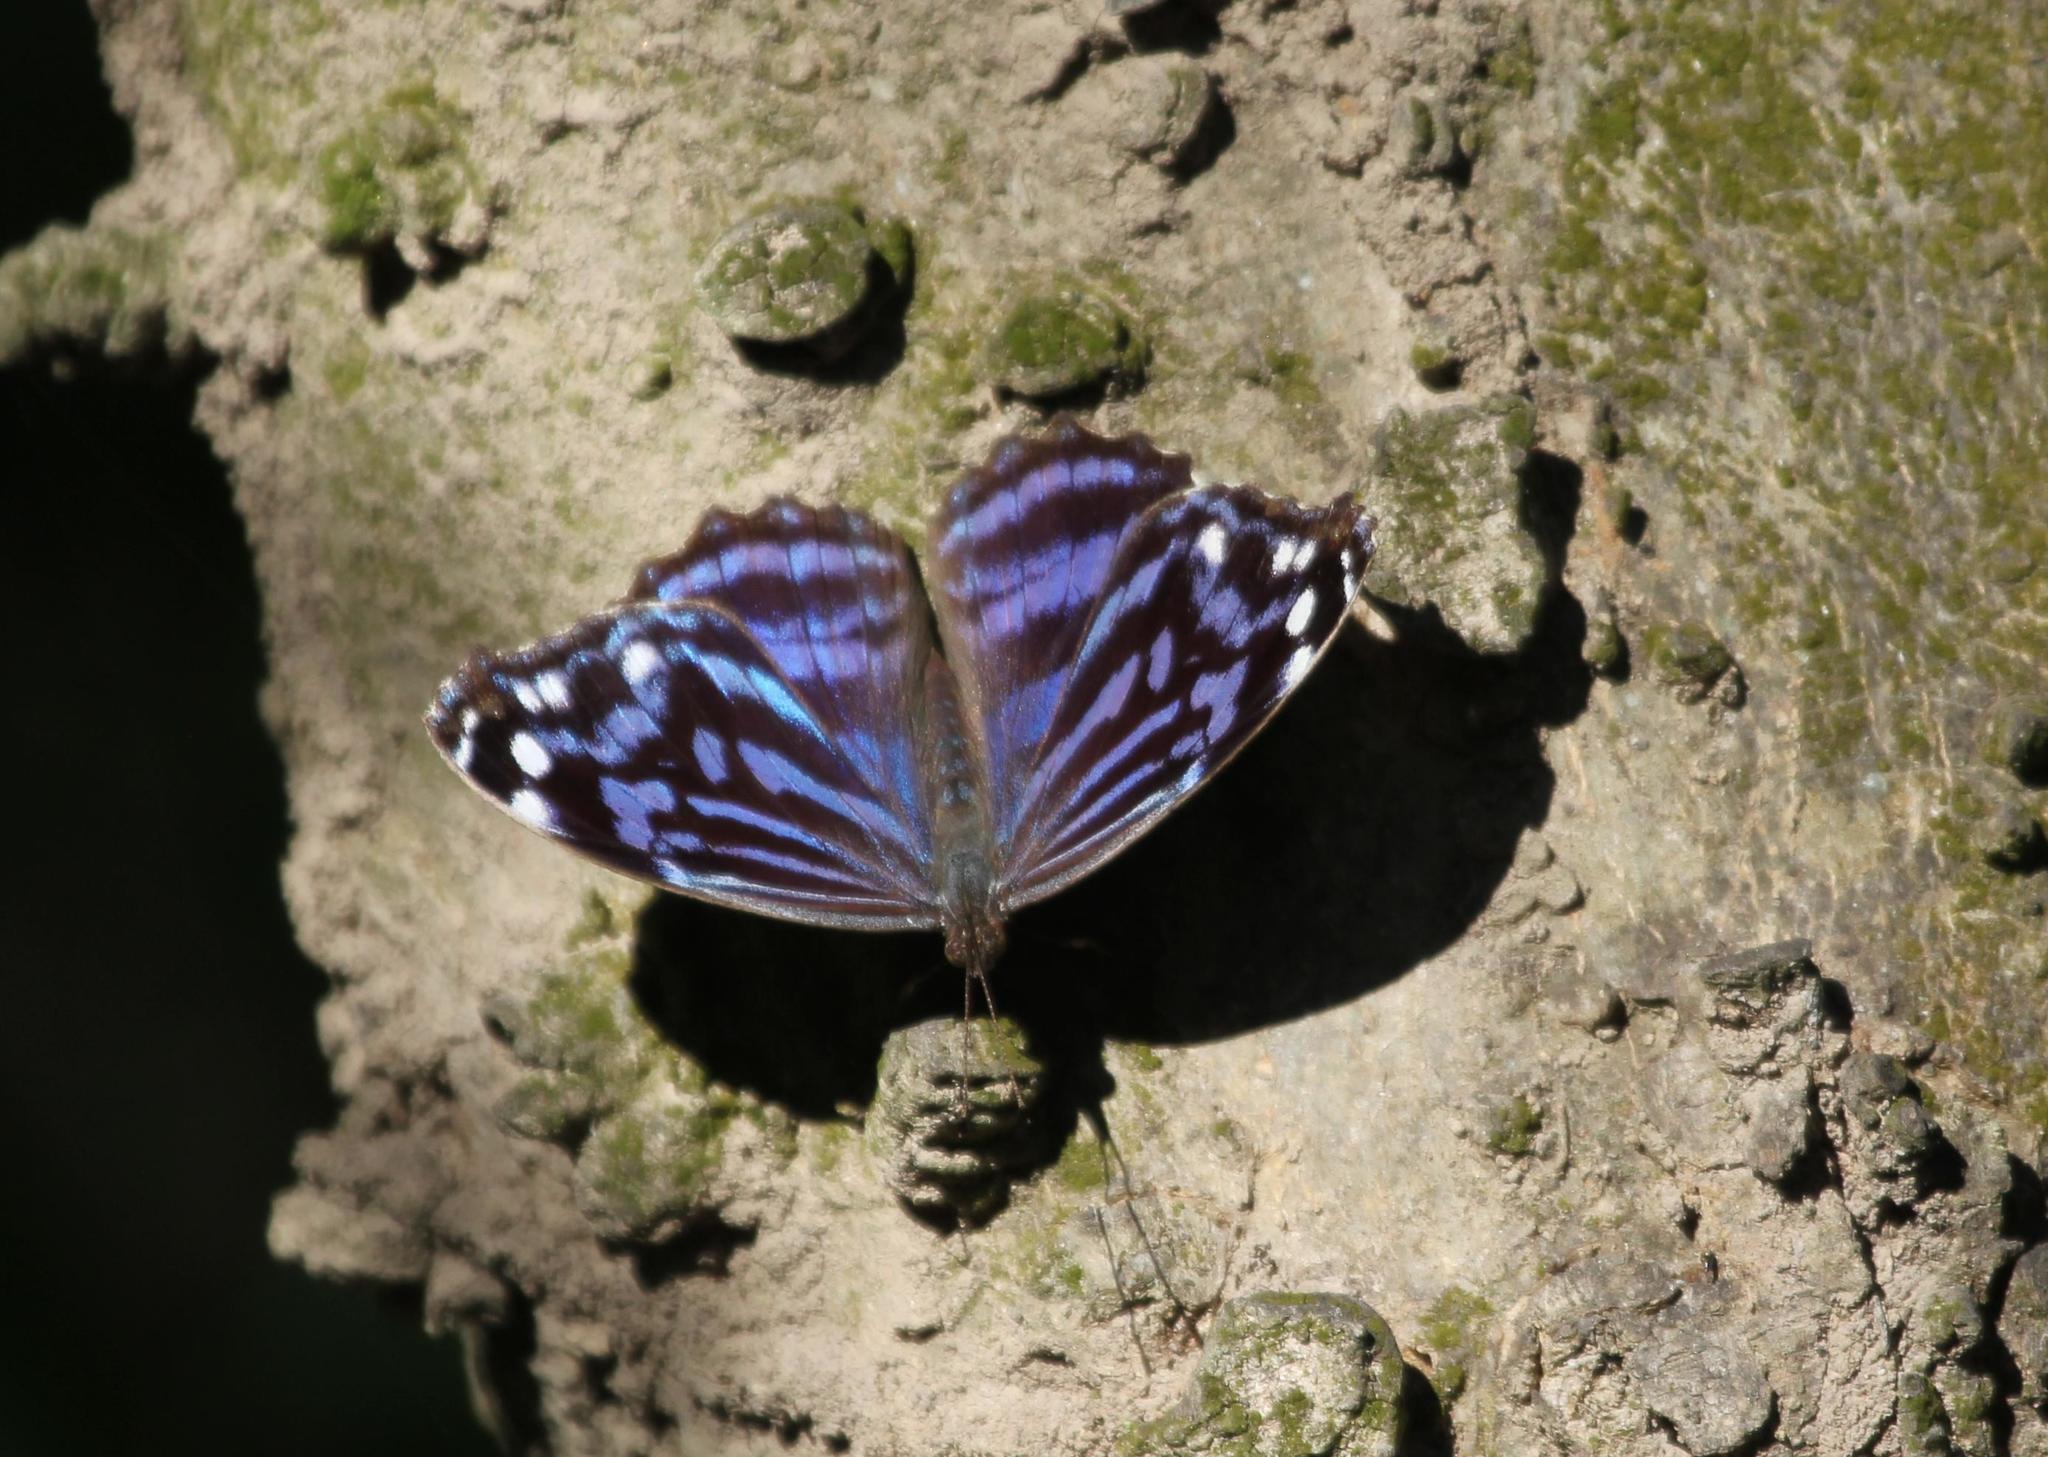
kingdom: Animalia
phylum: Arthropoda
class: Insecta
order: Lepidoptera
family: Nymphalidae
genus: Myscelia
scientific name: Myscelia ethusa
